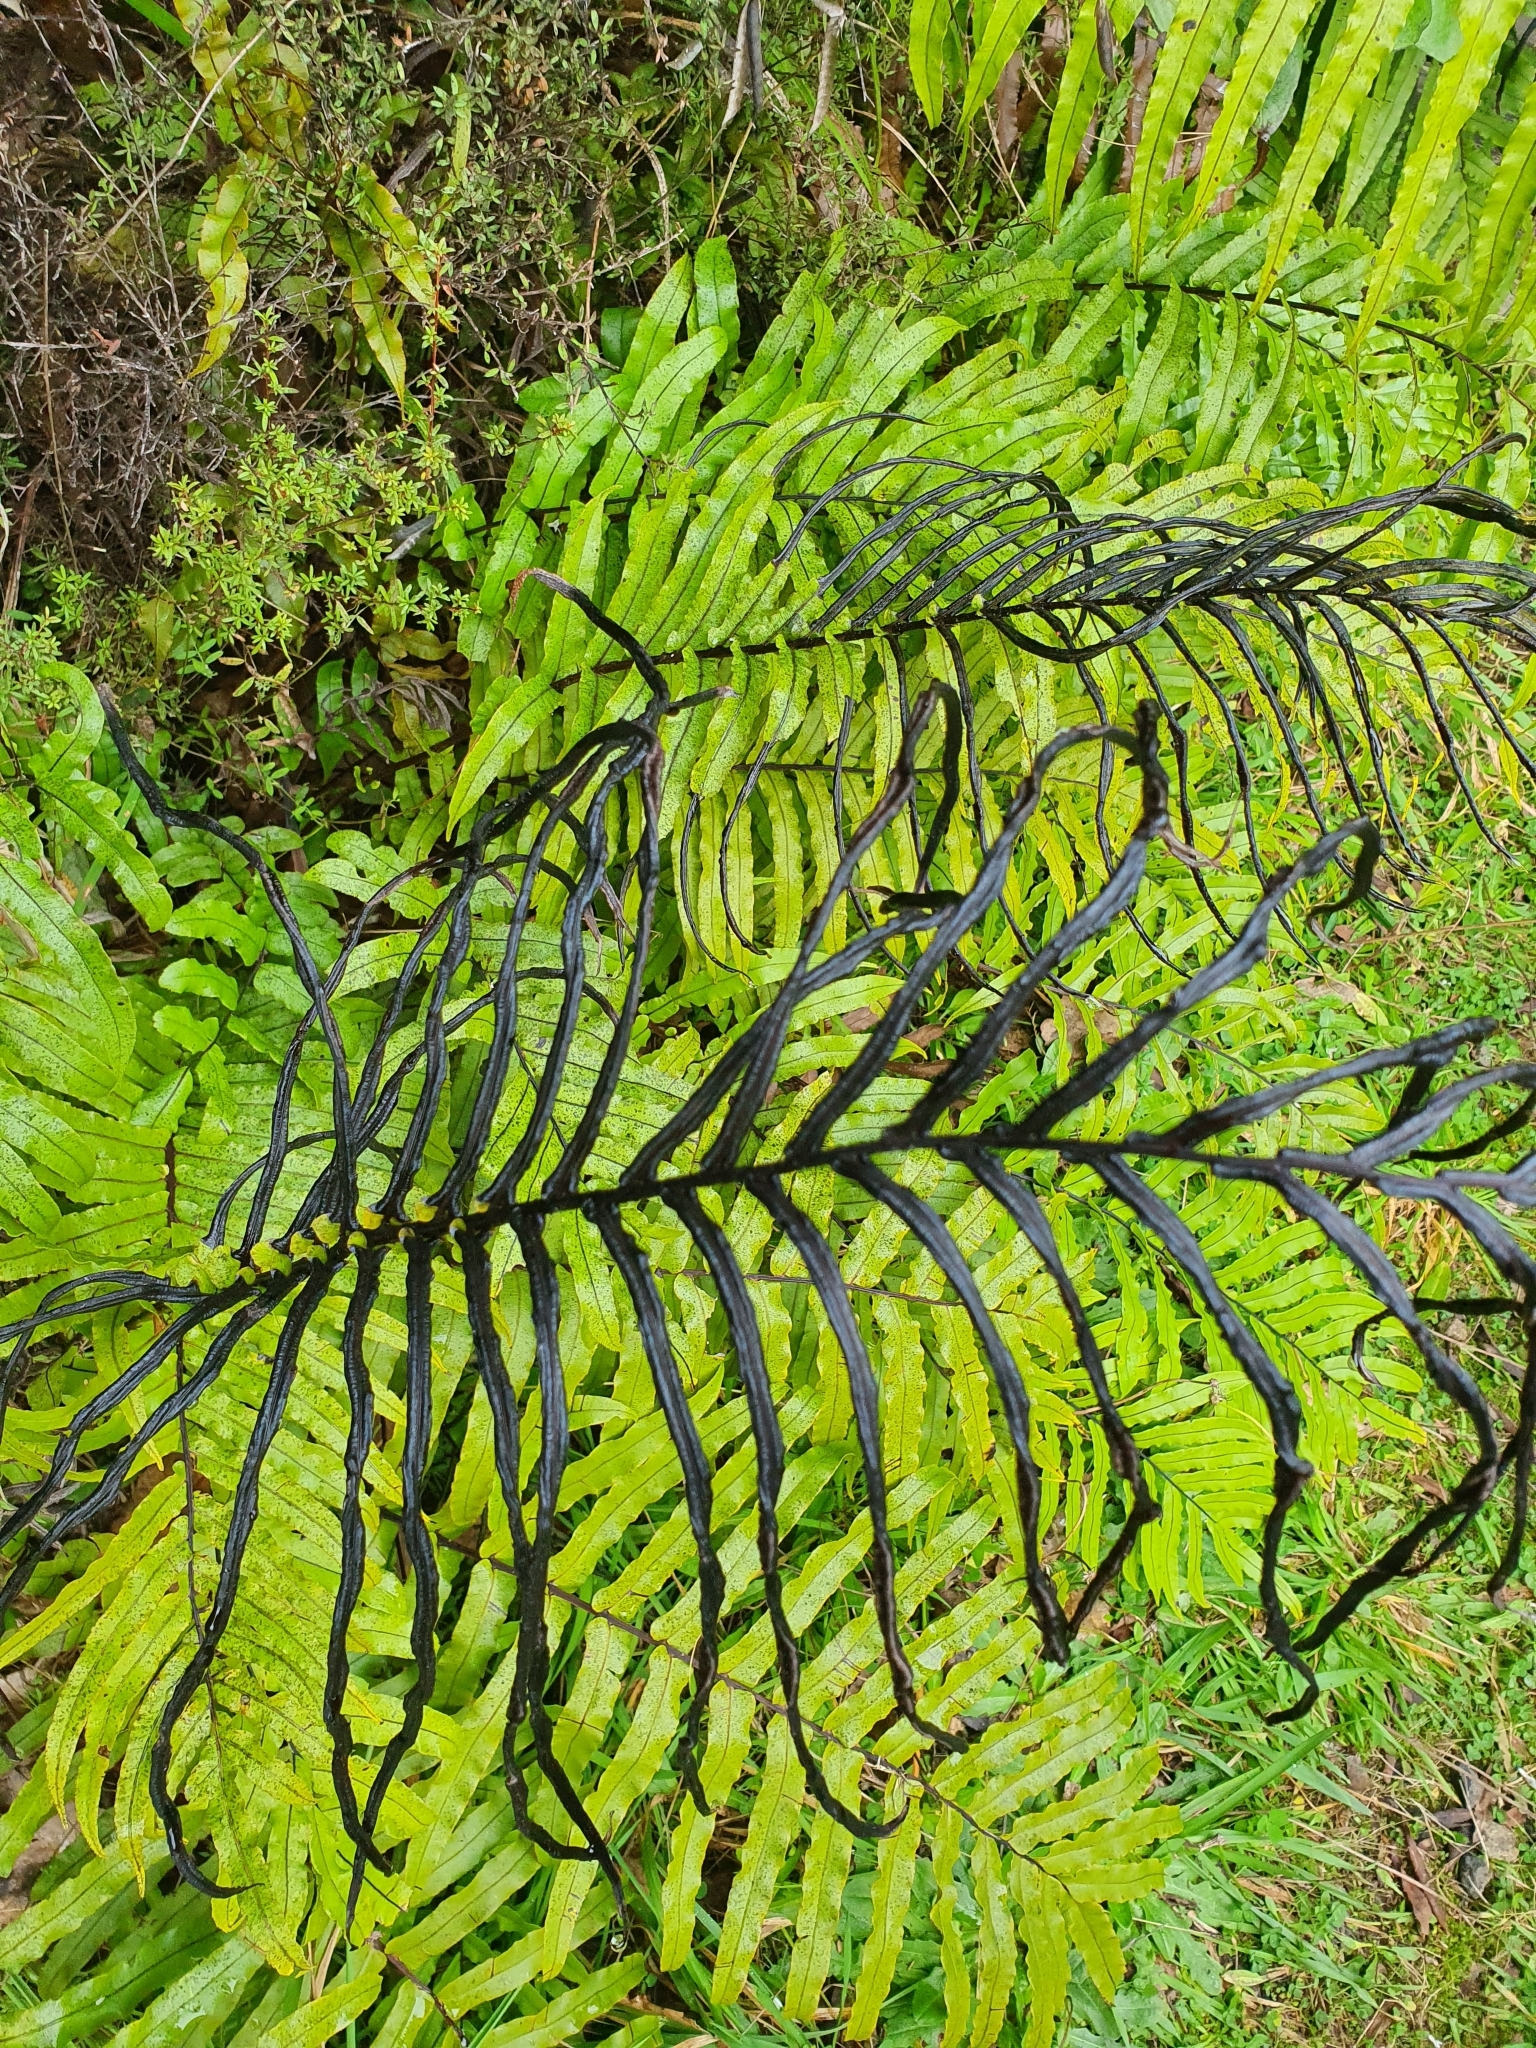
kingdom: Plantae
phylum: Tracheophyta
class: Polypodiopsida
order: Polypodiales
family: Blechnaceae
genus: Parablechnum
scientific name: Parablechnum novae-zelandiae
